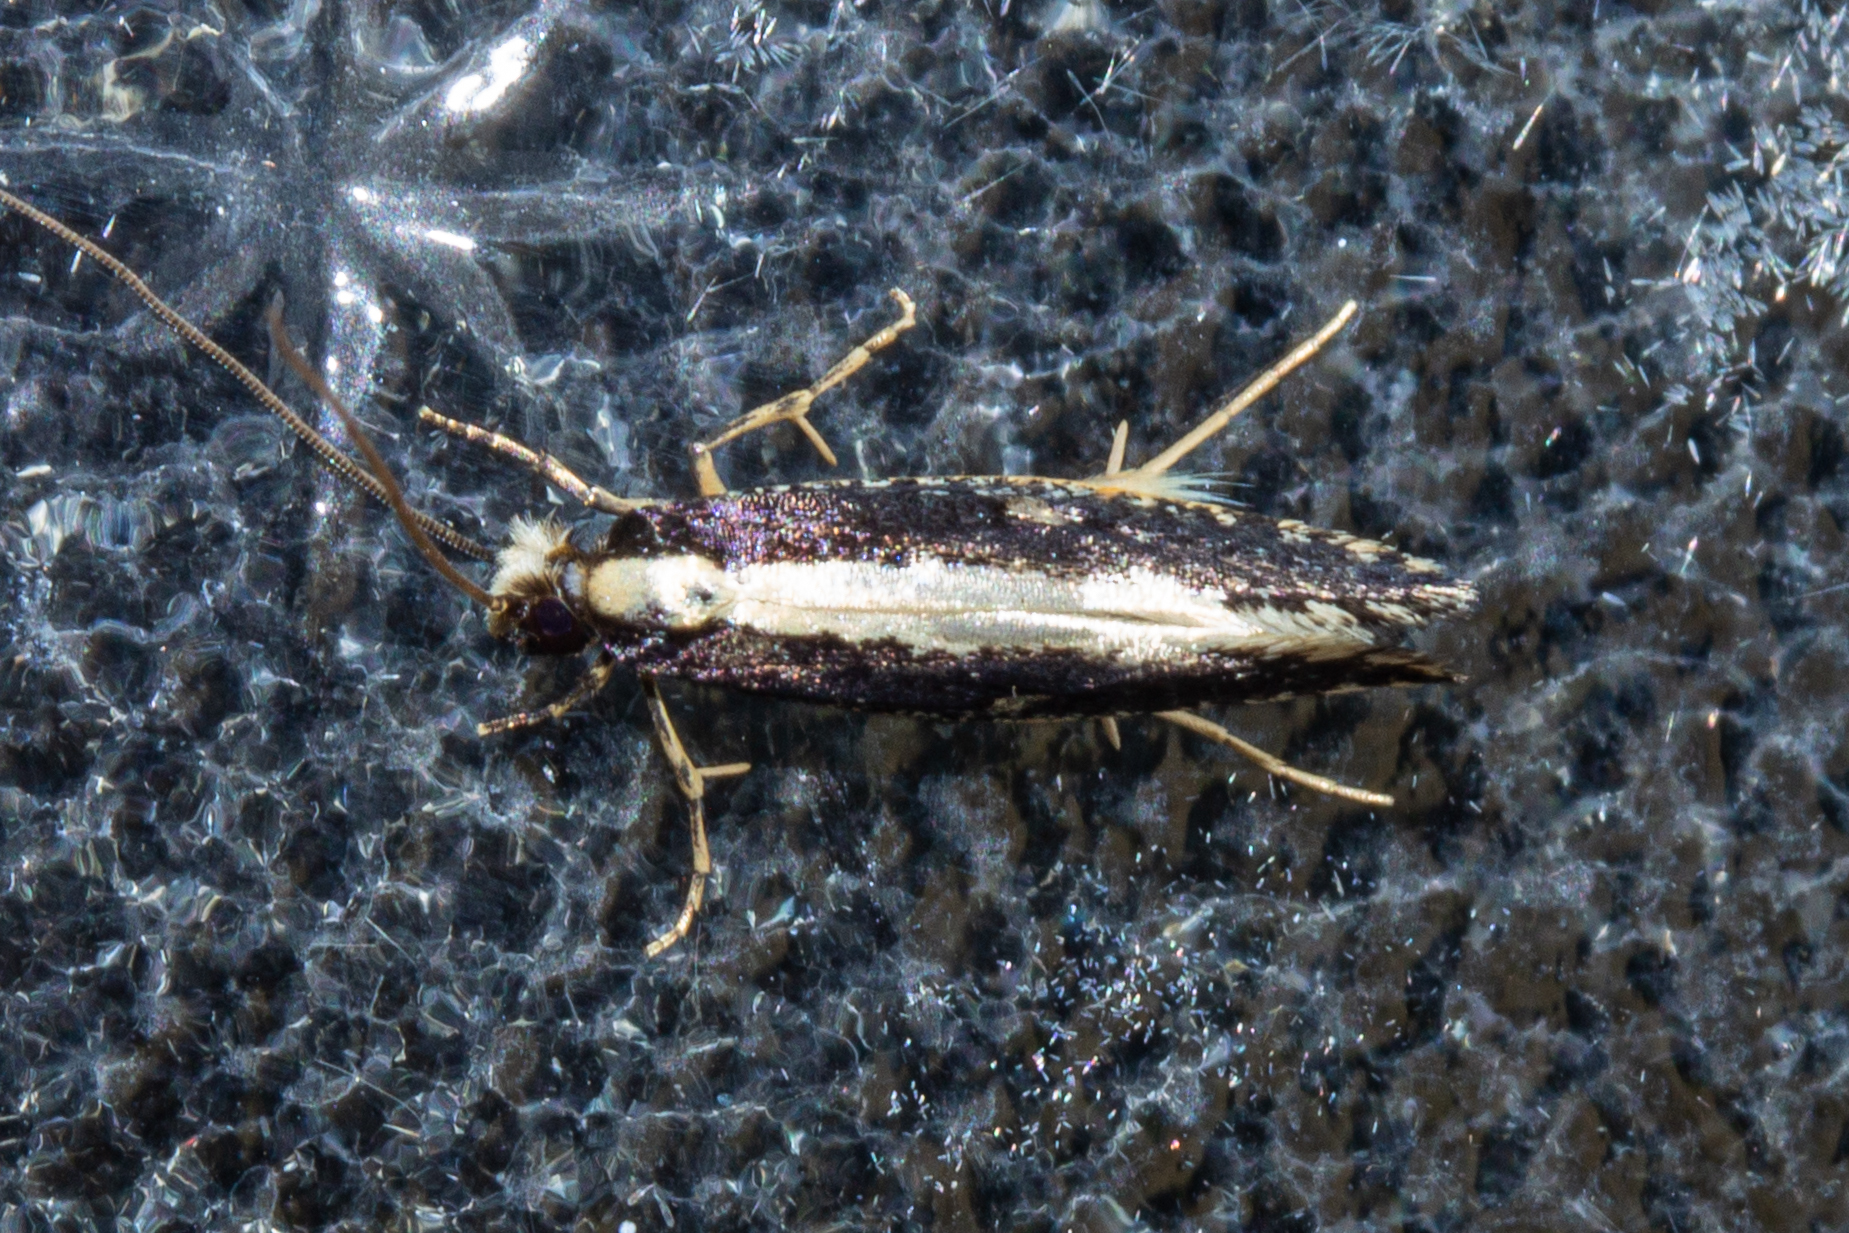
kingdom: Animalia
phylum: Arthropoda
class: Insecta
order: Lepidoptera
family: Tineidae
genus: Monopis
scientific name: Monopis ethelella
